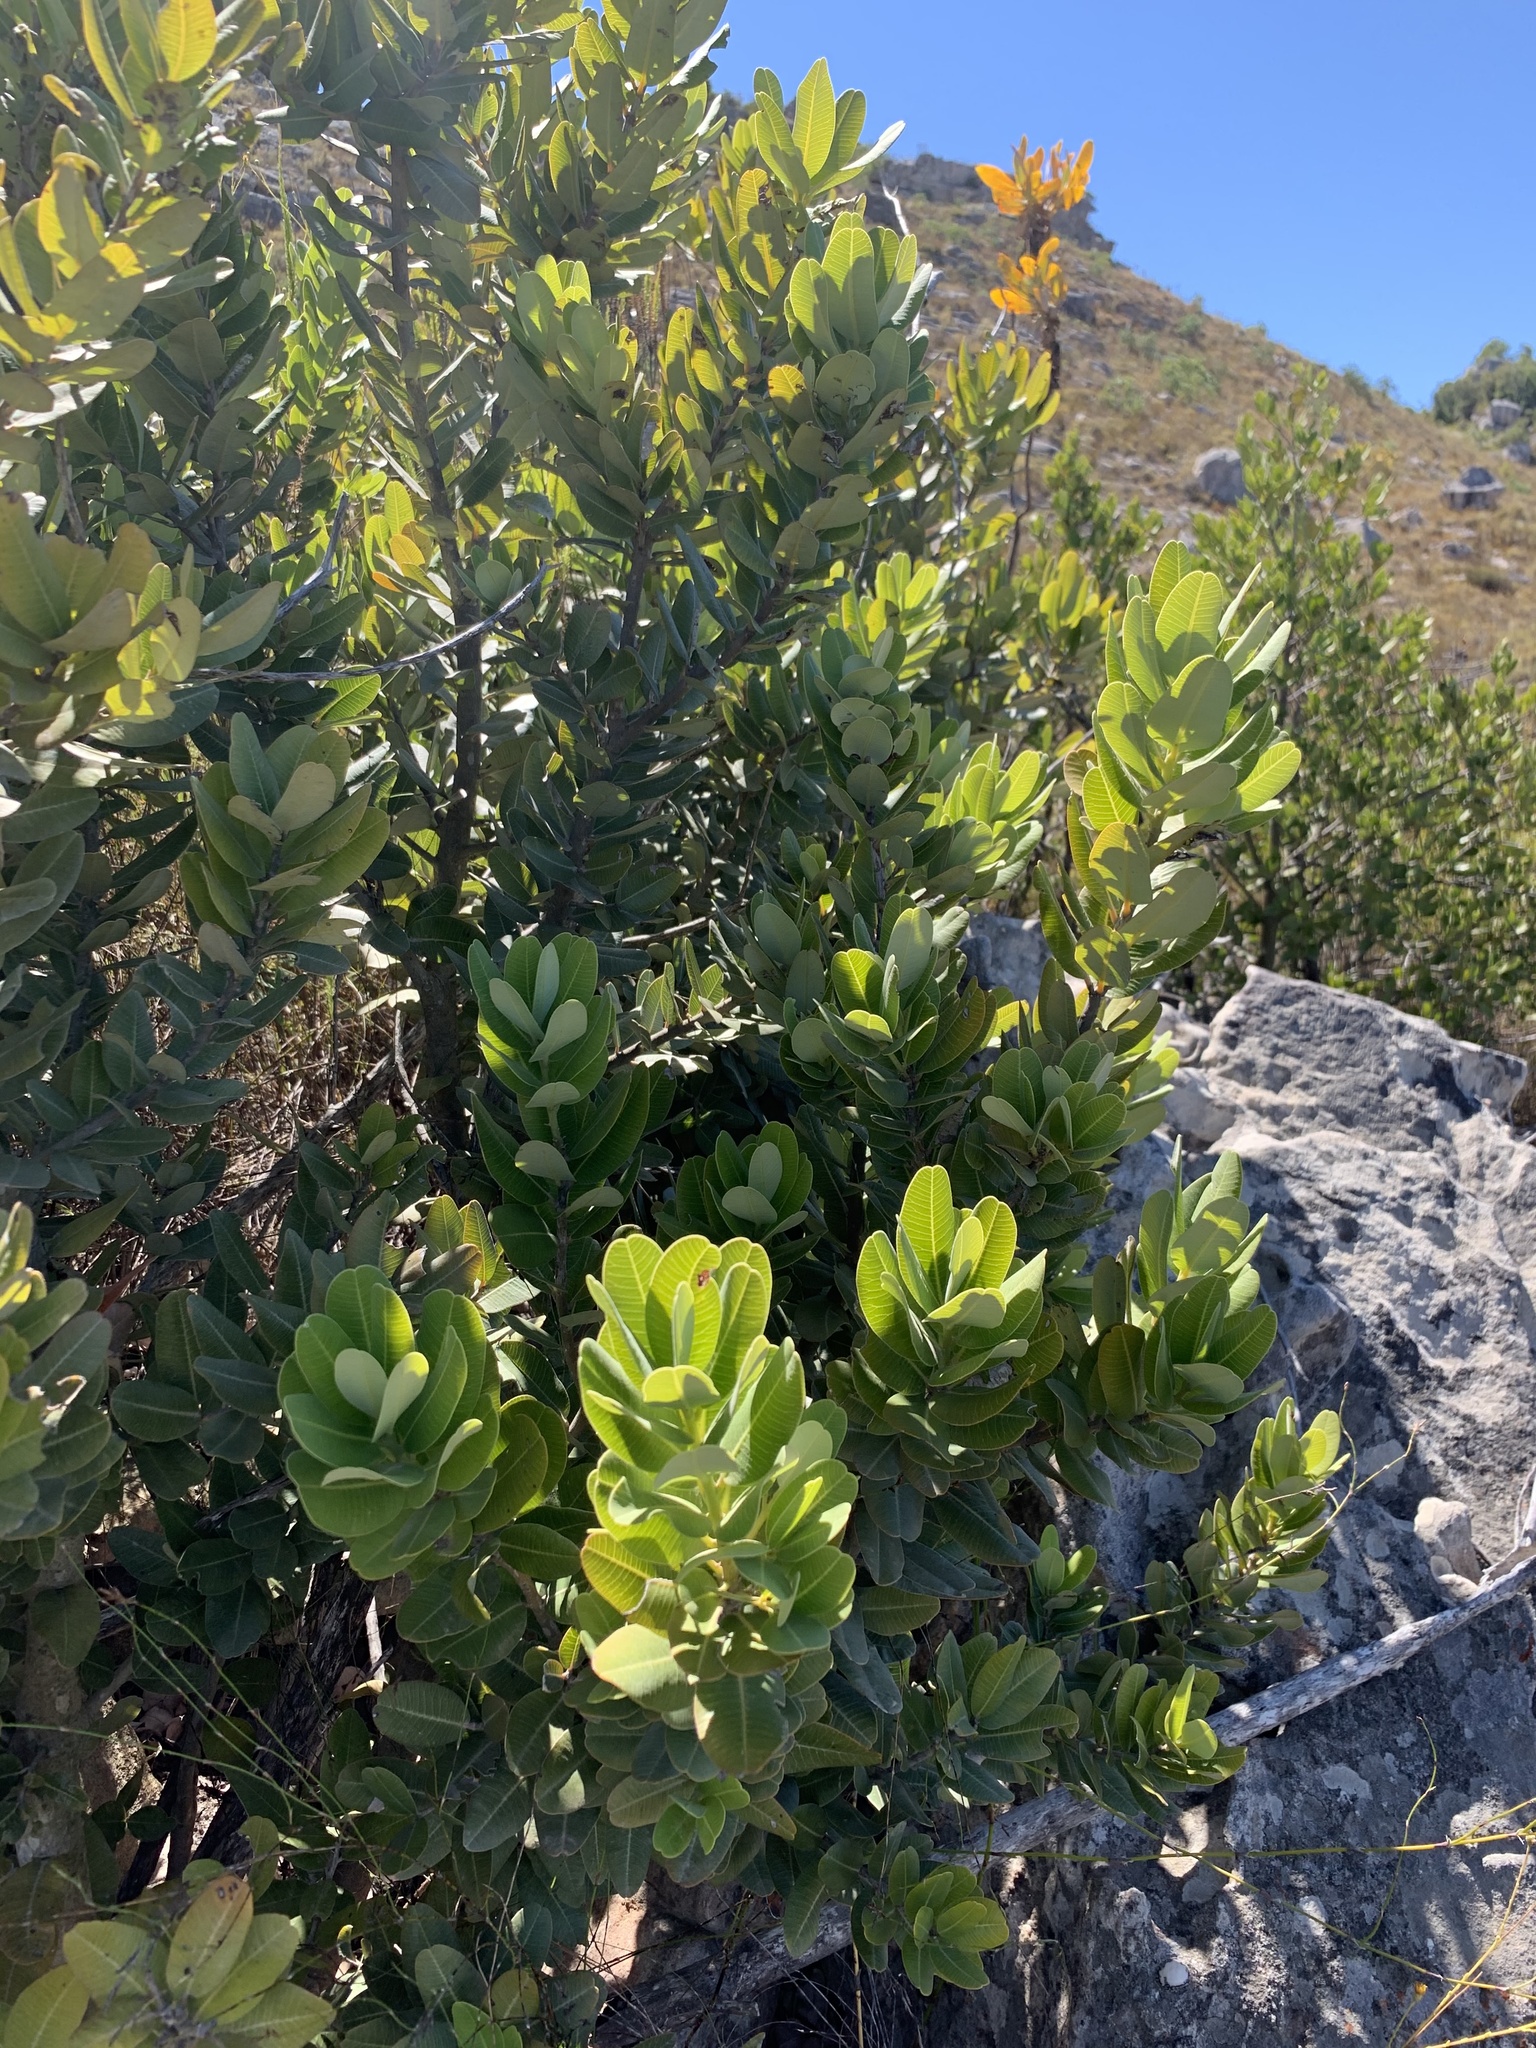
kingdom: Plantae
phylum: Tracheophyta
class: Magnoliopsida
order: Sapindales
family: Anacardiaceae
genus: Heeria
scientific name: Heeria argentea
